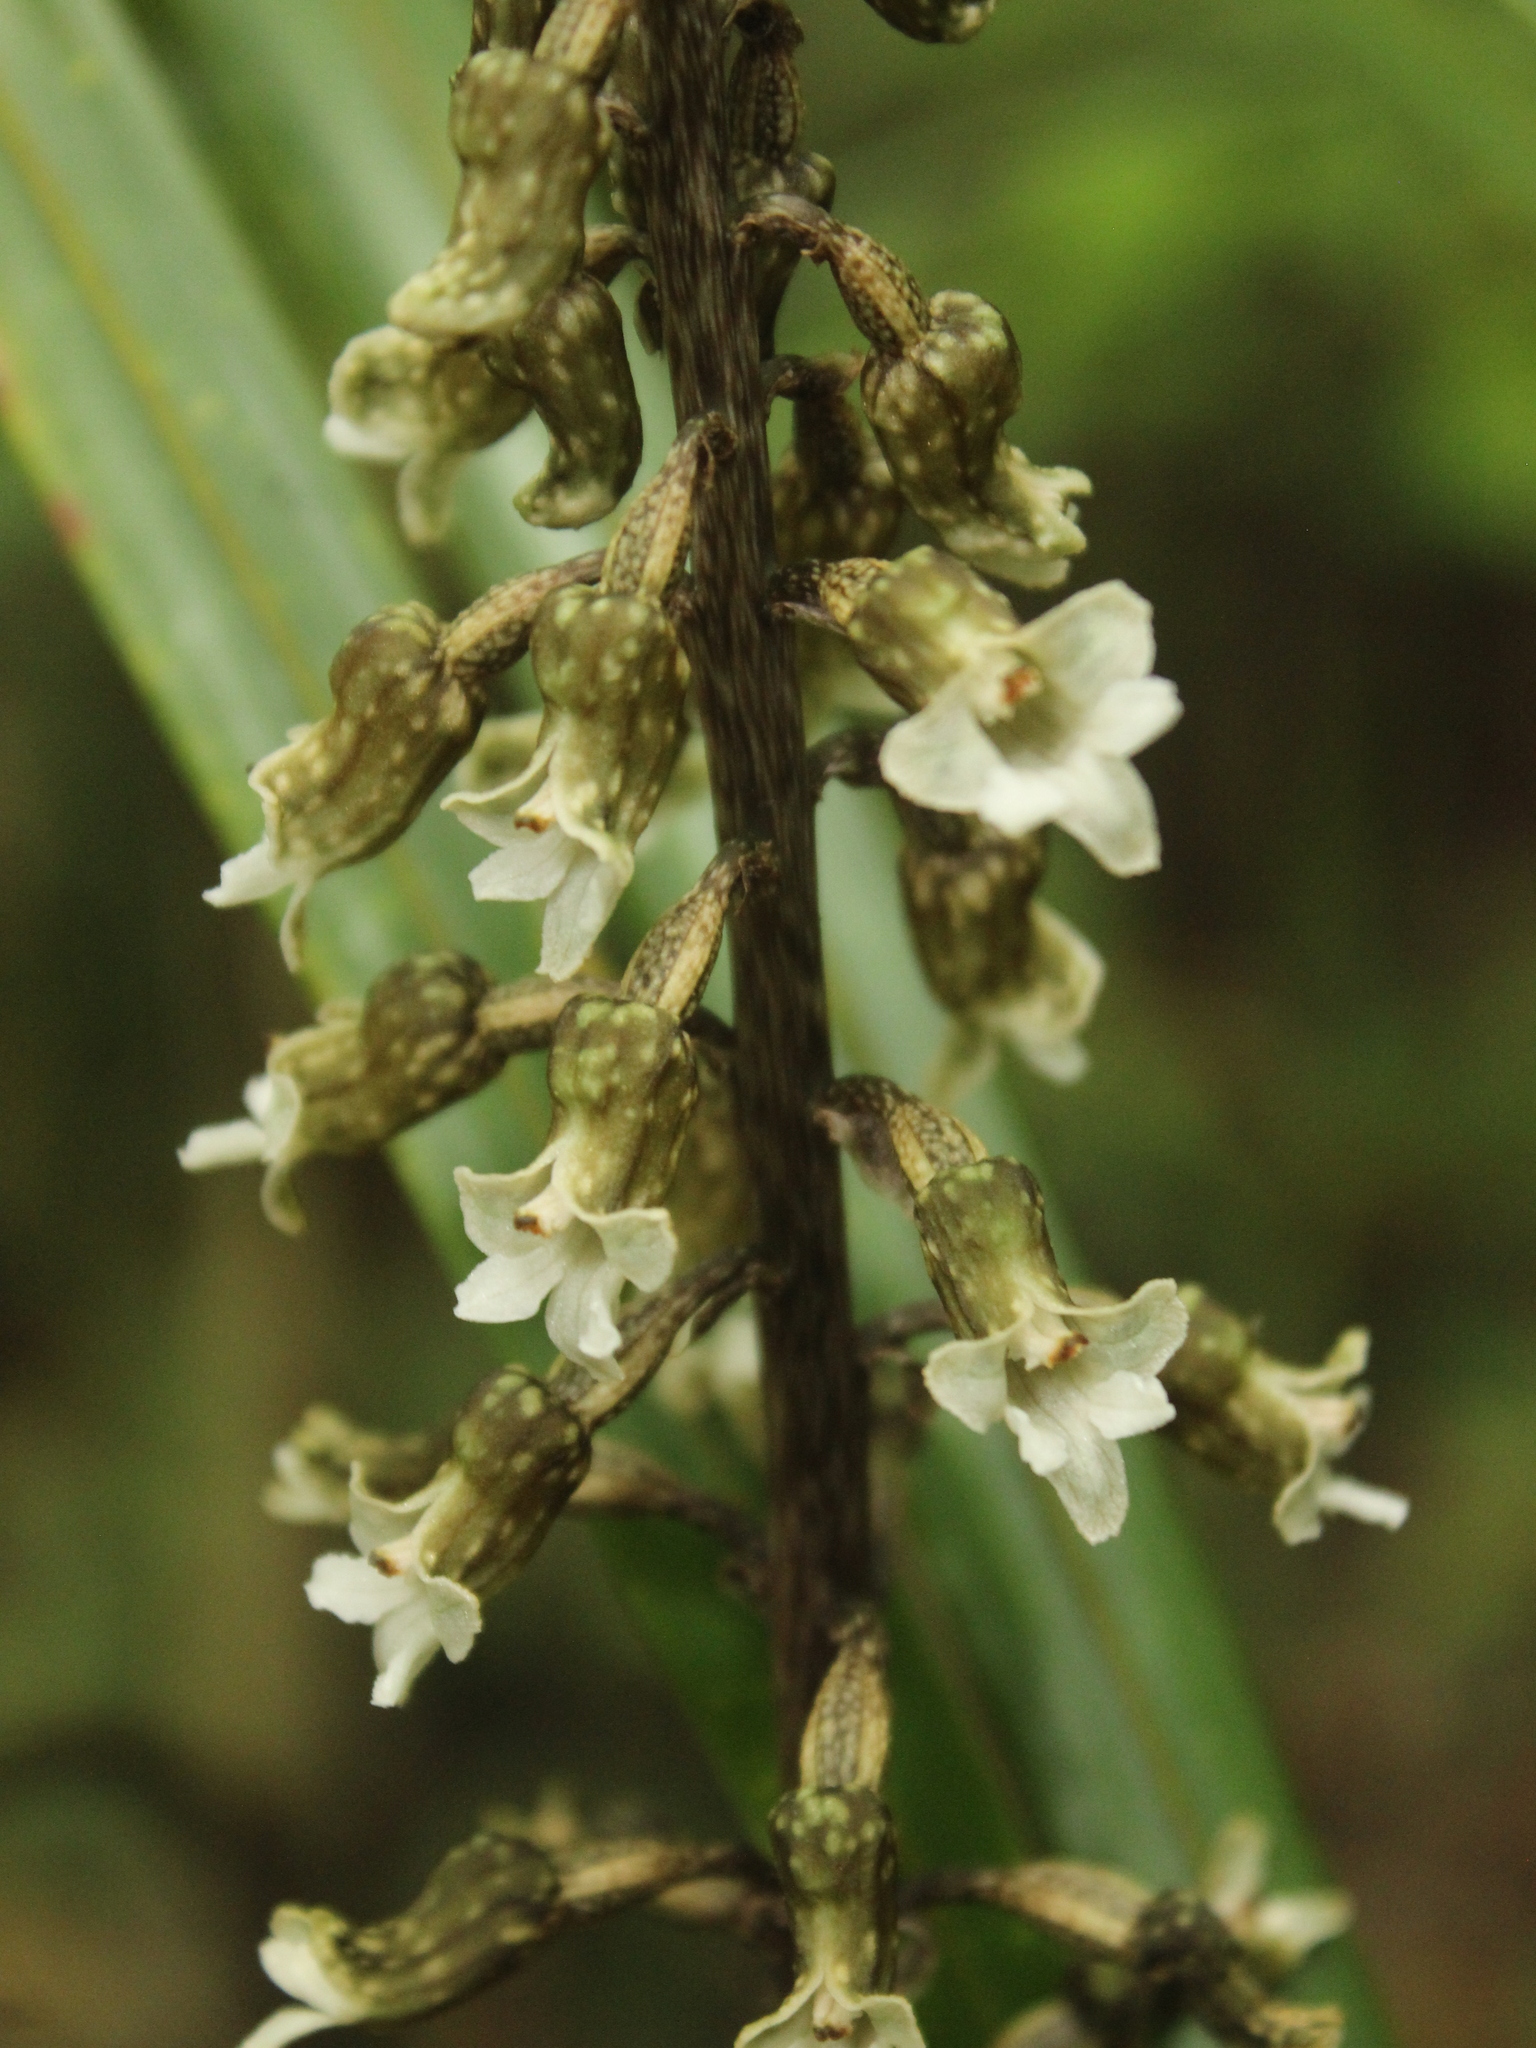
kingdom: Plantae
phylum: Tracheophyta
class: Liliopsida
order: Asparagales
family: Orchidaceae
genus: Gastrodia
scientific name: Gastrodia cunninghamii
